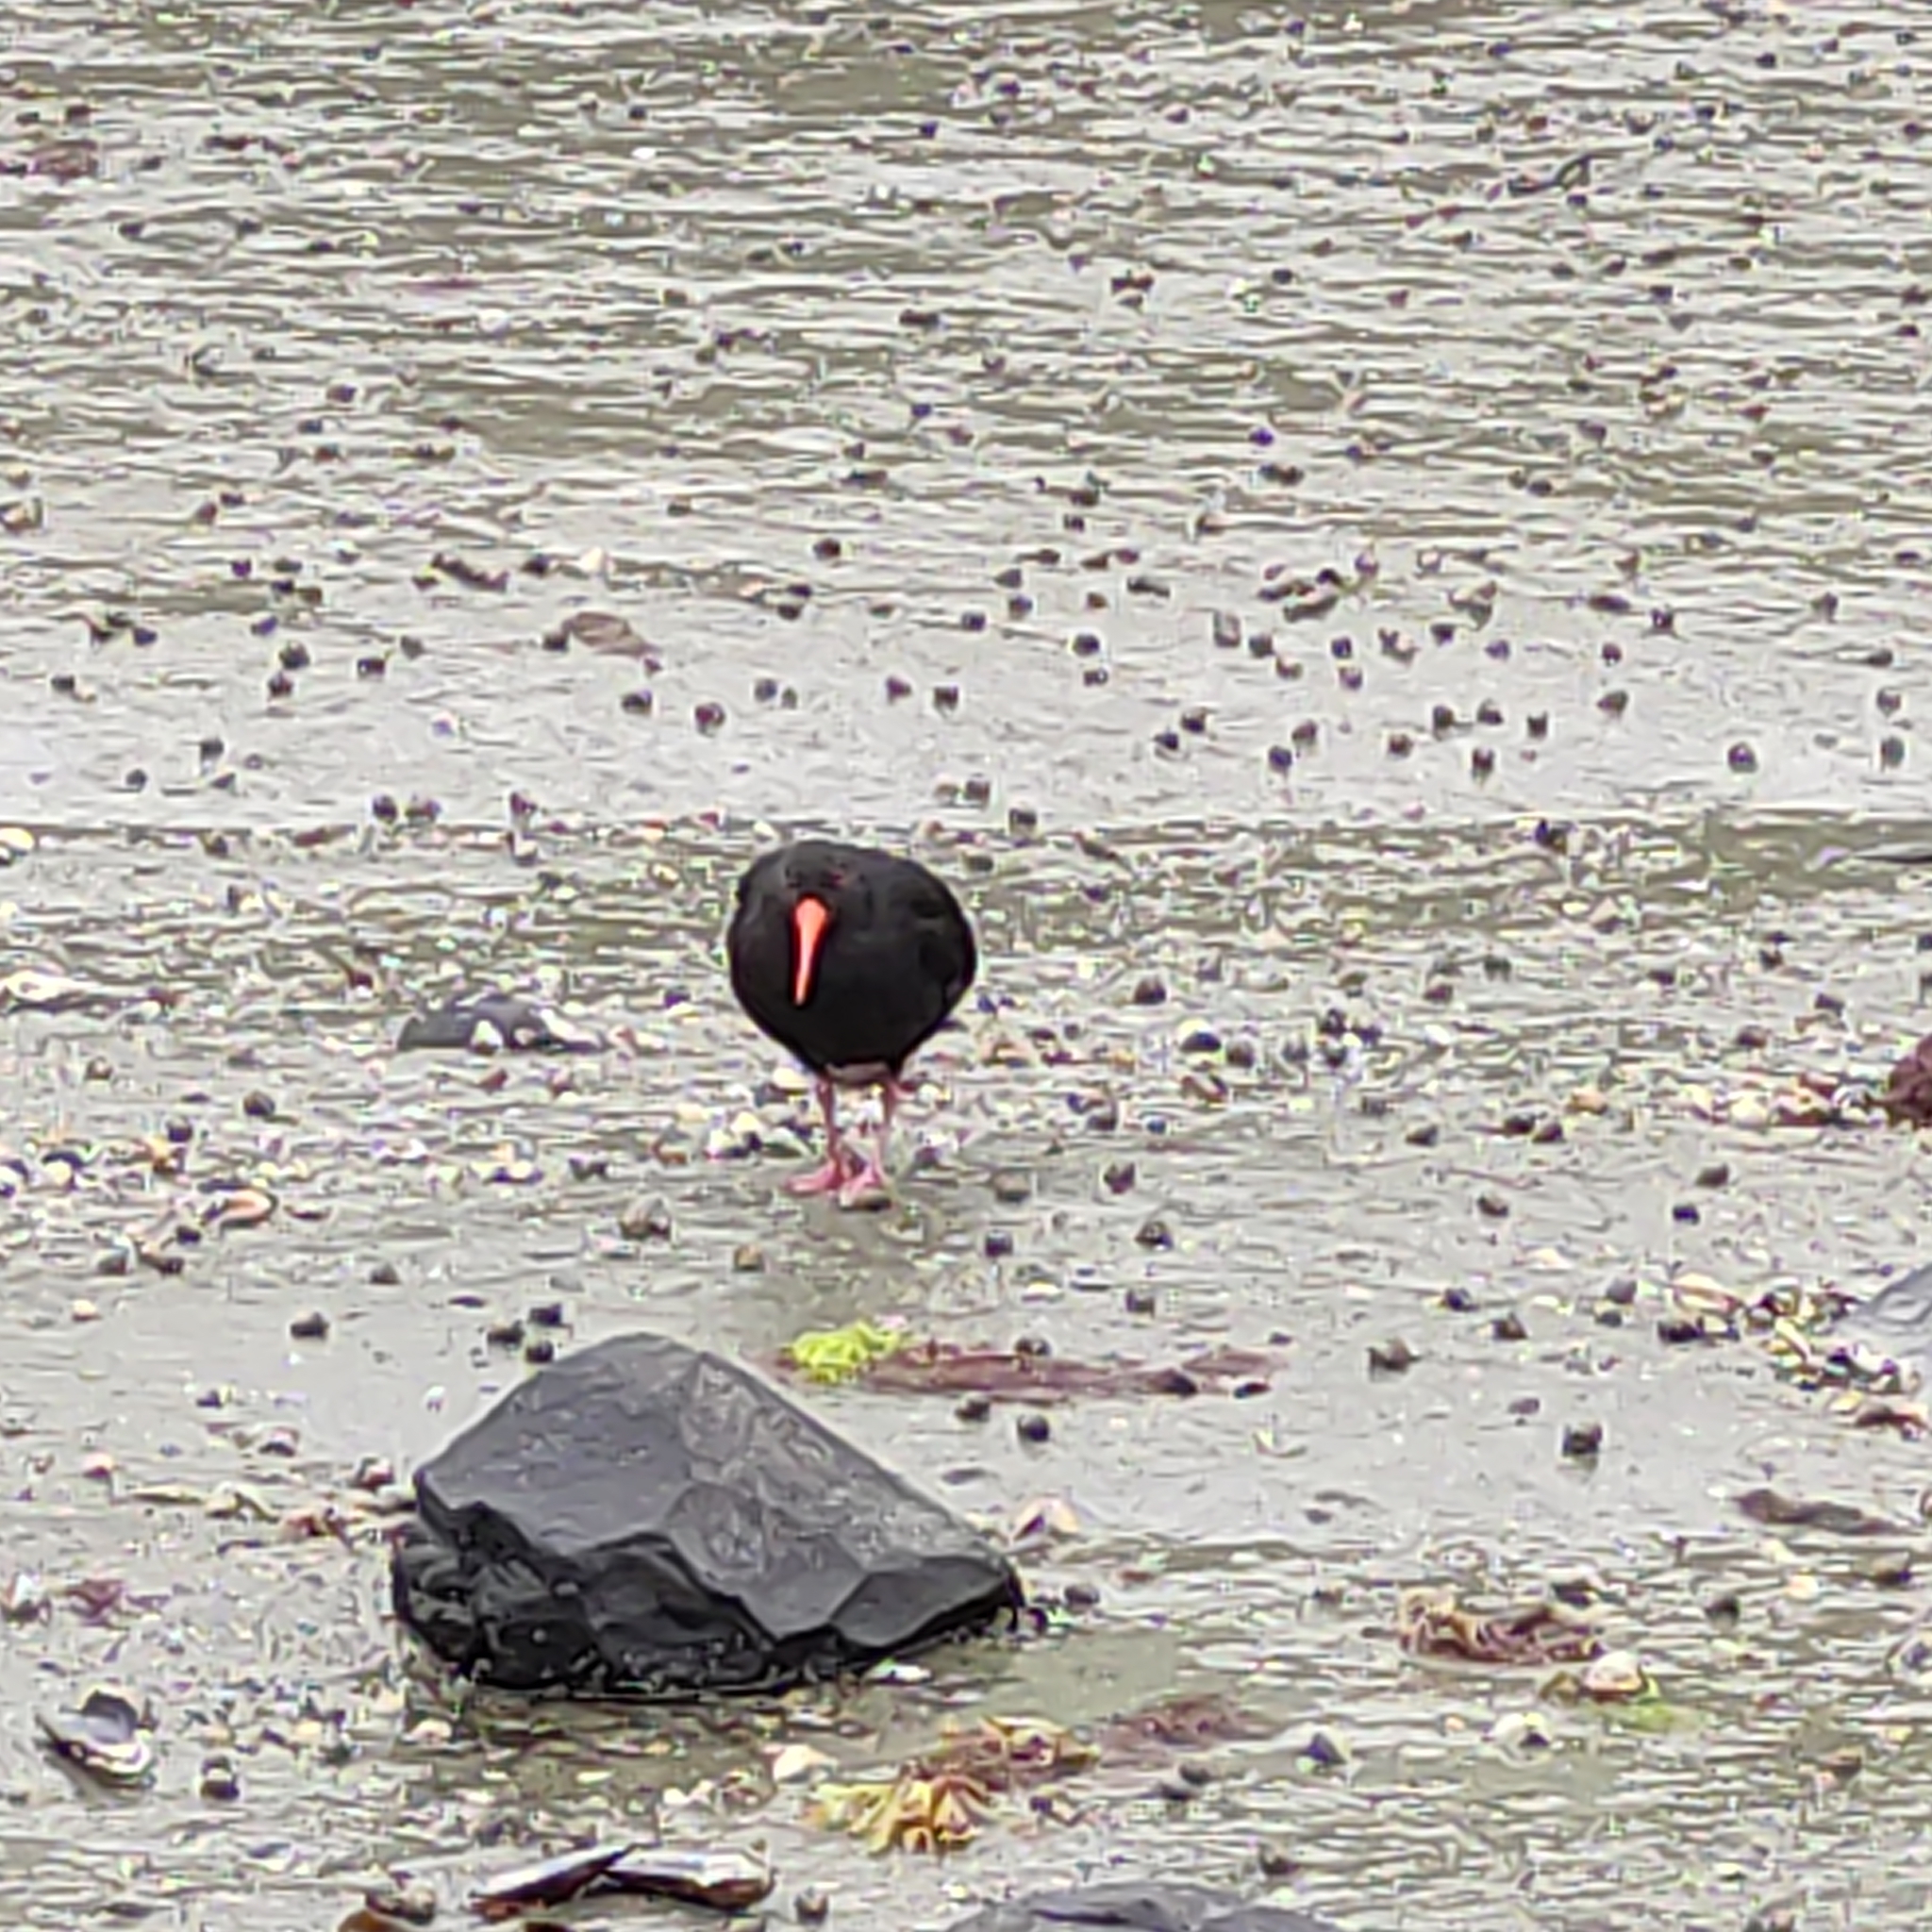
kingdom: Animalia
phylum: Chordata
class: Aves
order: Charadriiformes
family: Haematopodidae
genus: Haematopus
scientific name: Haematopus unicolor
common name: Variable oystercatcher
